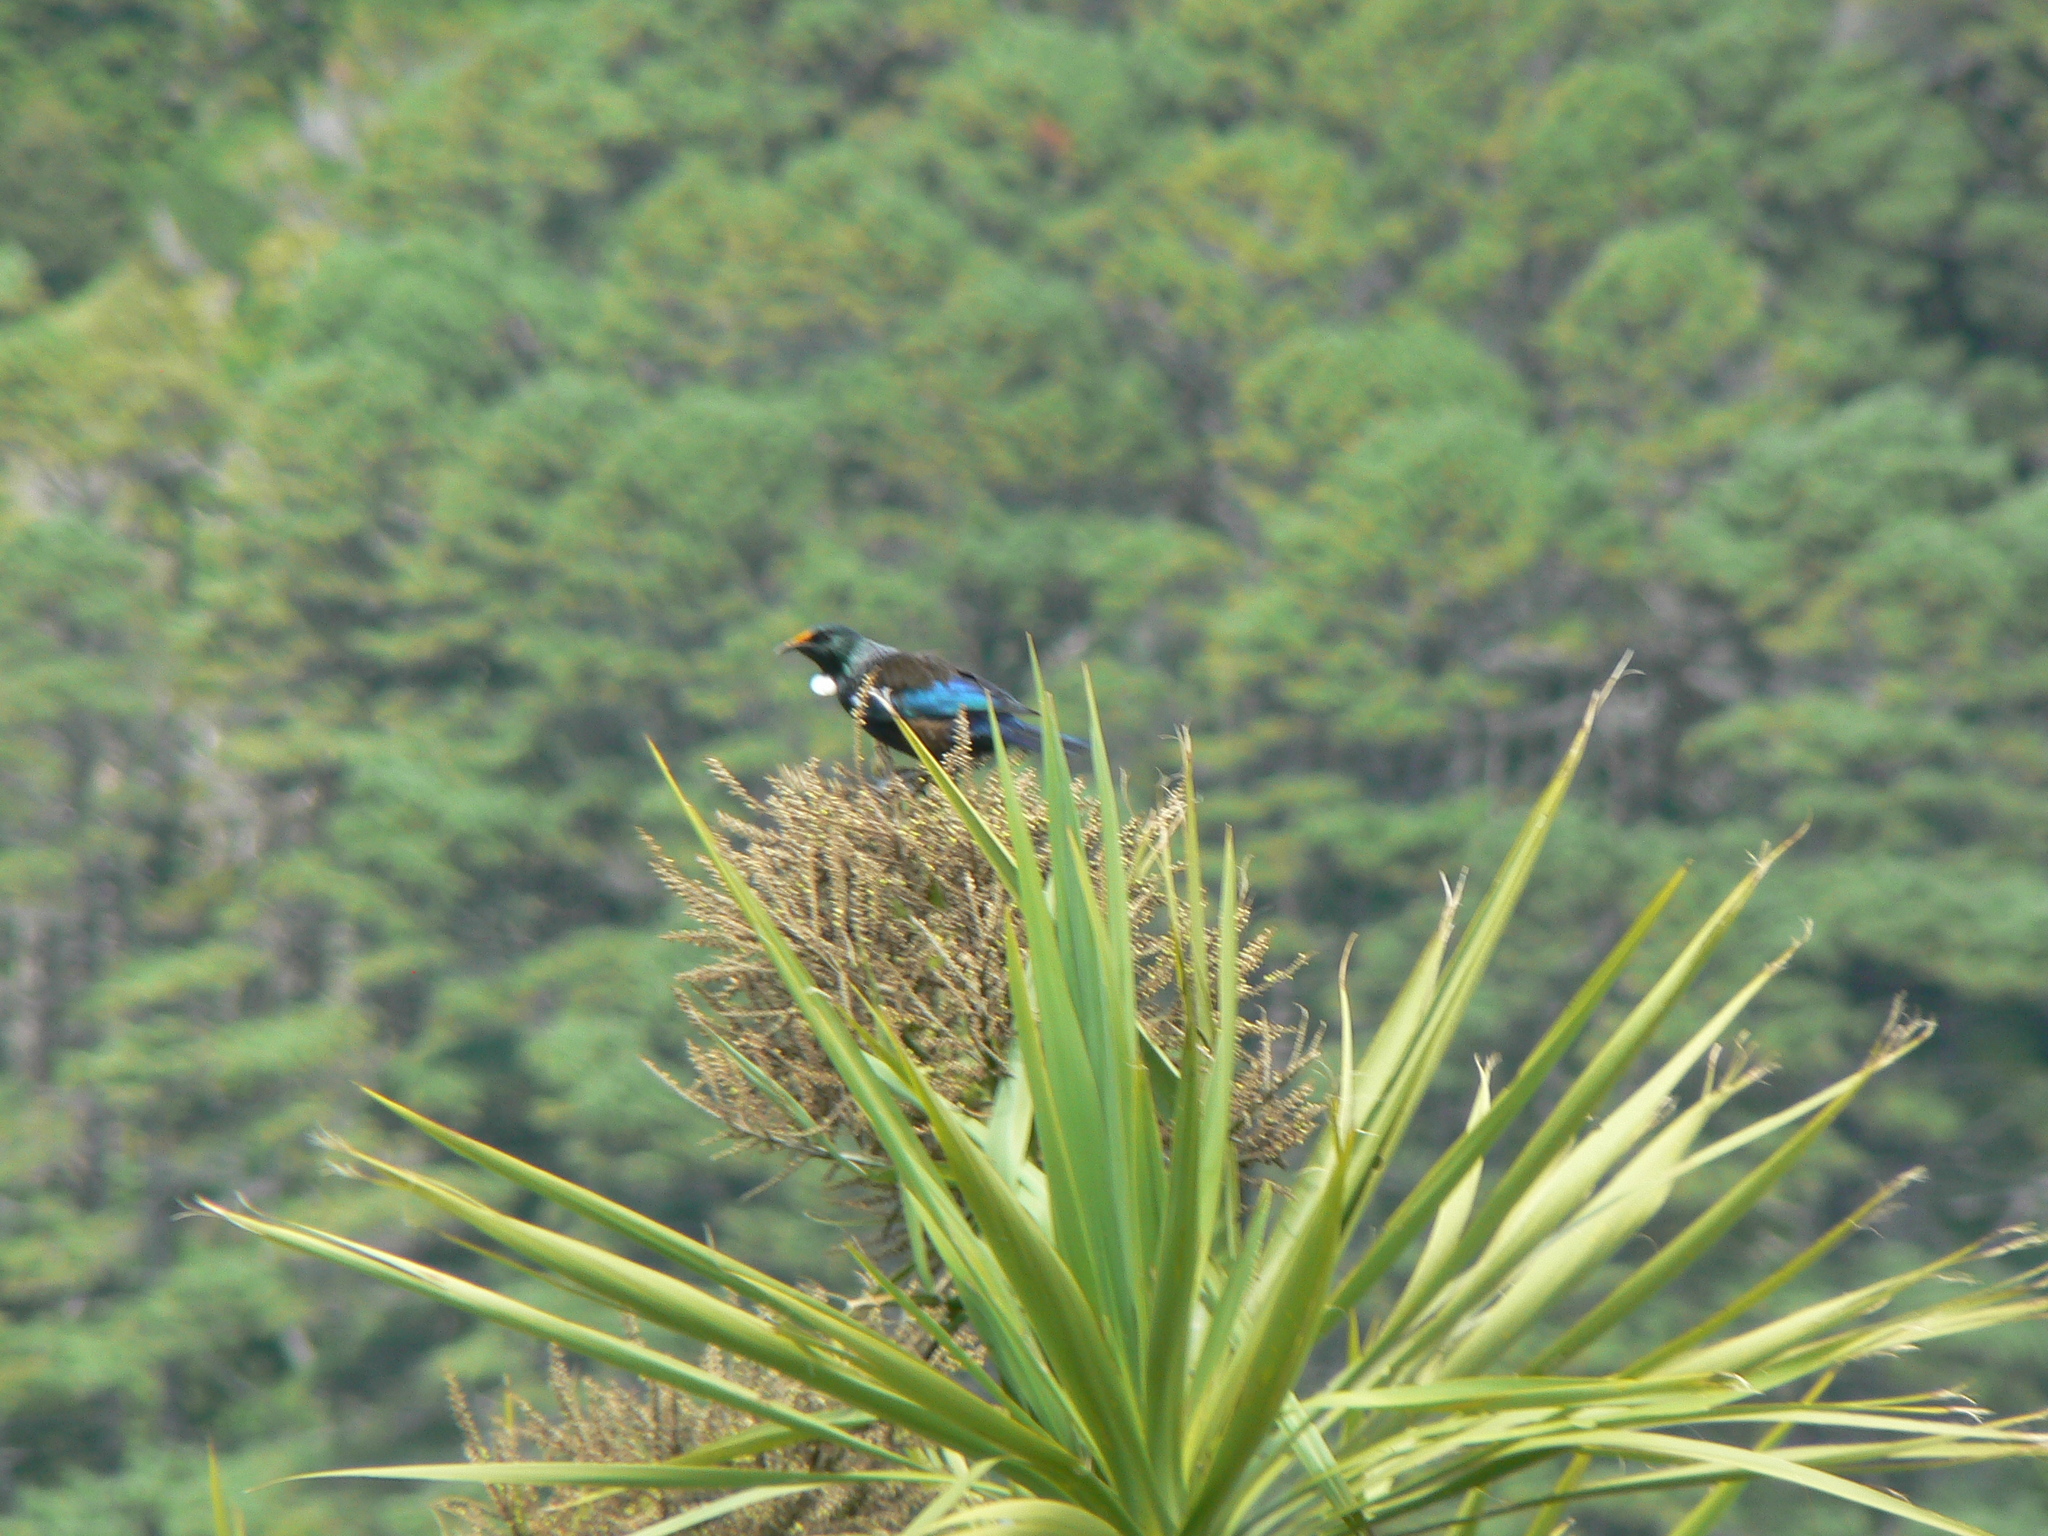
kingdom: Animalia
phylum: Chordata
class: Aves
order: Passeriformes
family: Meliphagidae
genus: Prosthemadera
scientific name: Prosthemadera novaeseelandiae
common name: Tui
